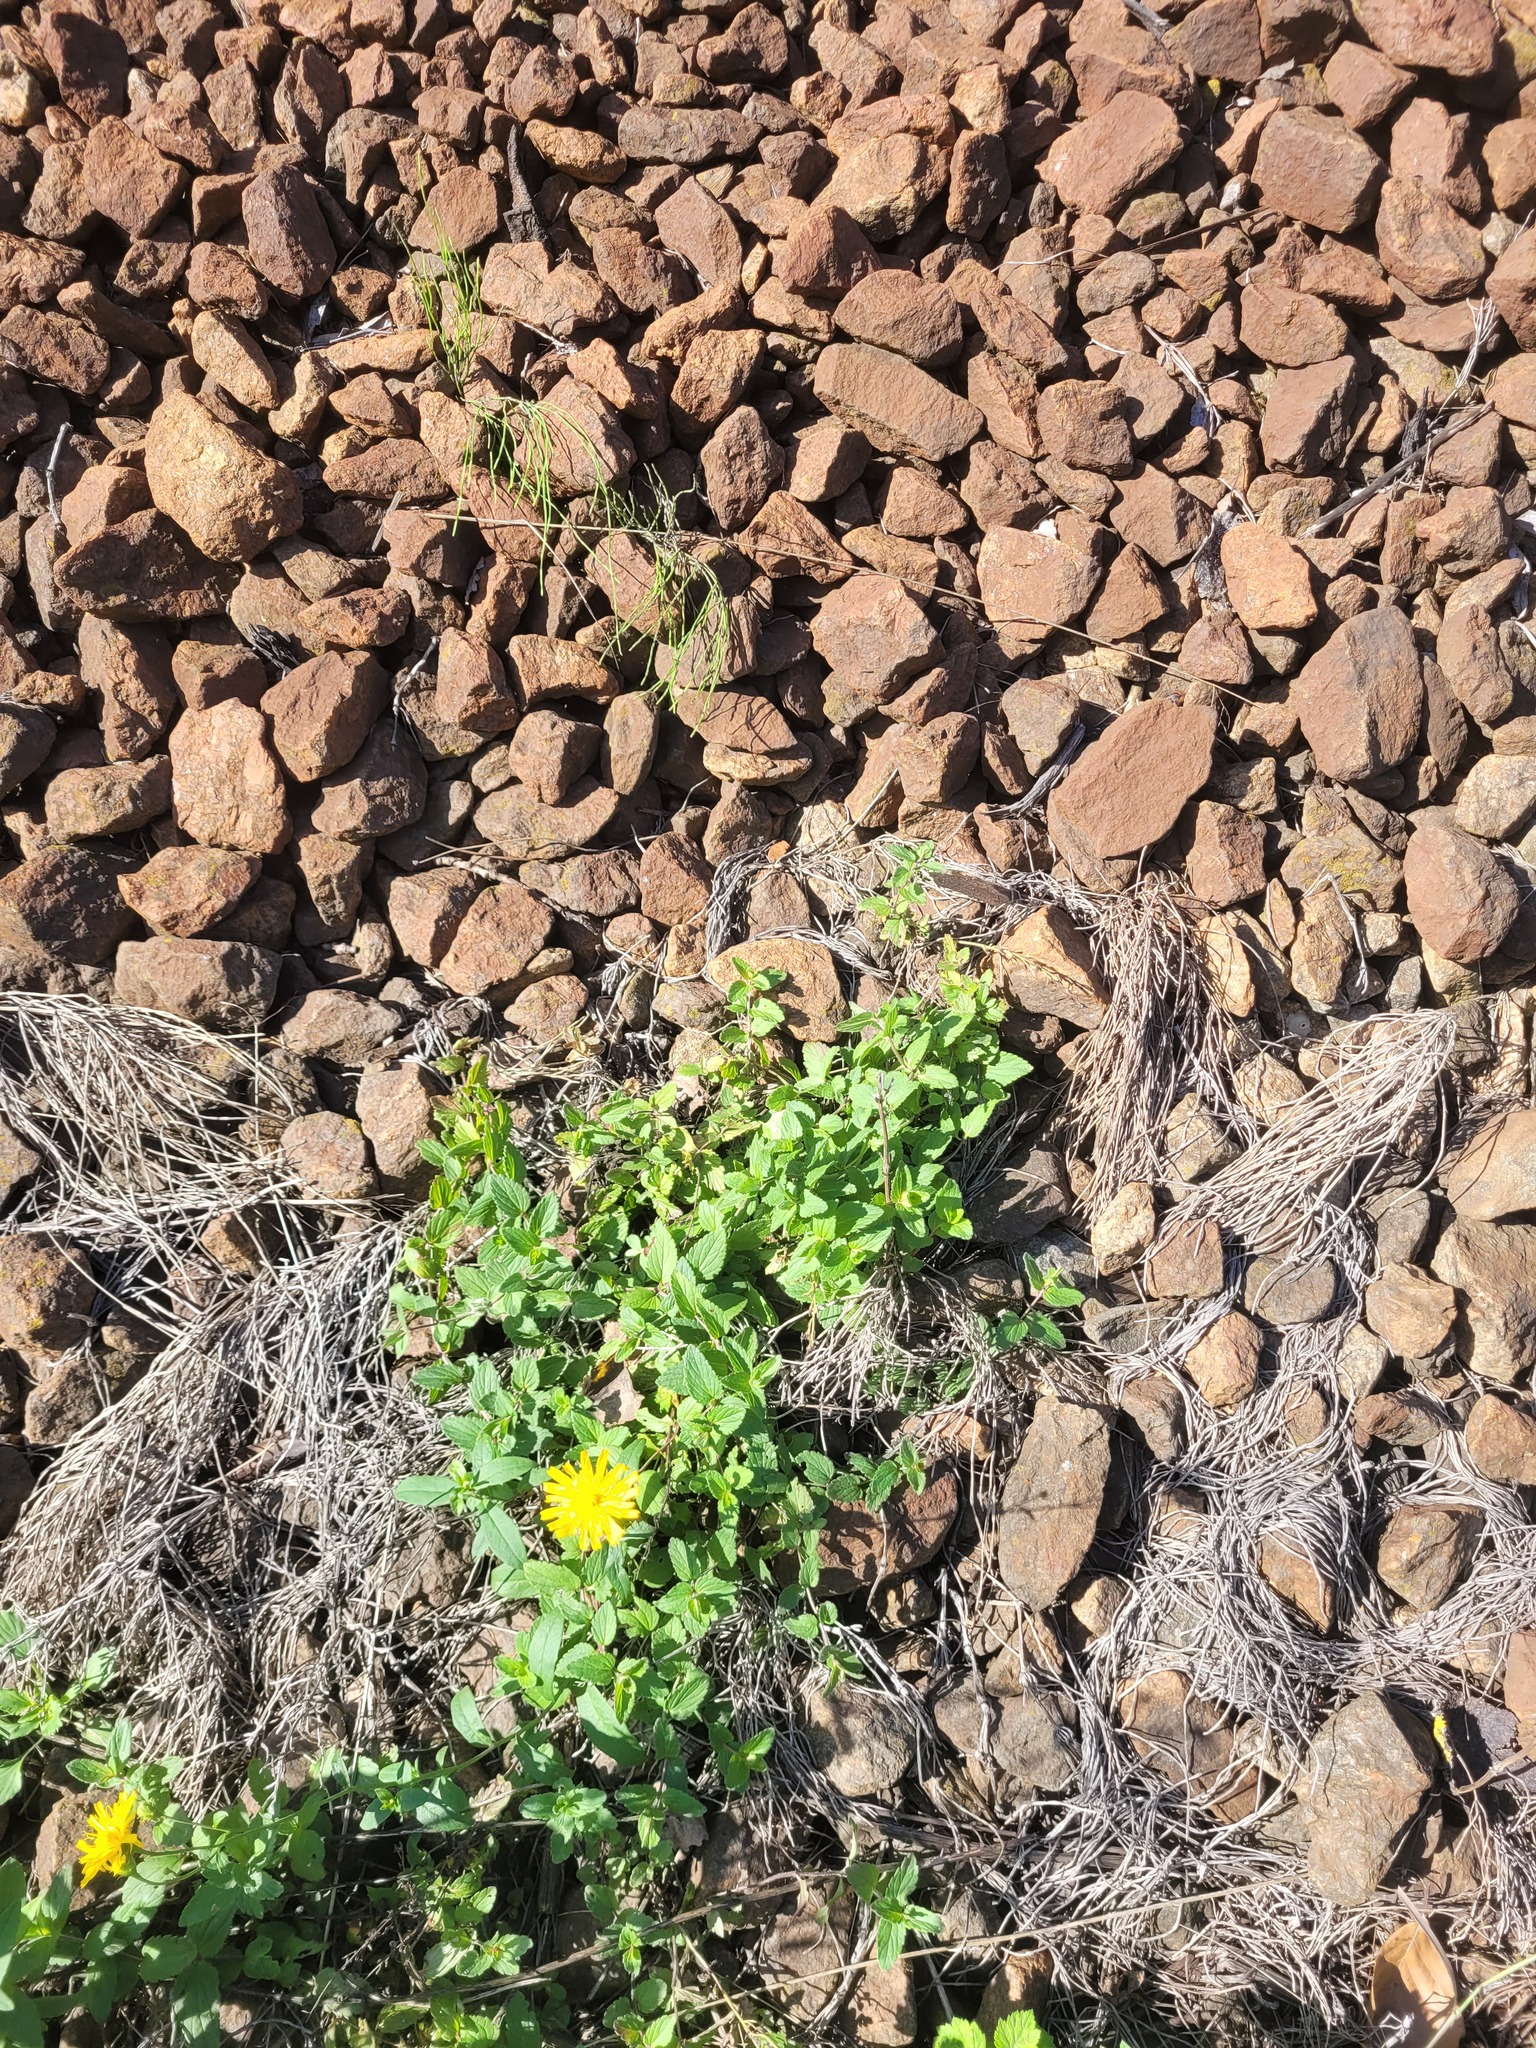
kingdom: Plantae
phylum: Tracheophyta
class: Magnoliopsida
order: Lamiales
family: Plantaginaceae
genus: Veronica
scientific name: Veronica chamaedrys
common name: Germander speedwell
